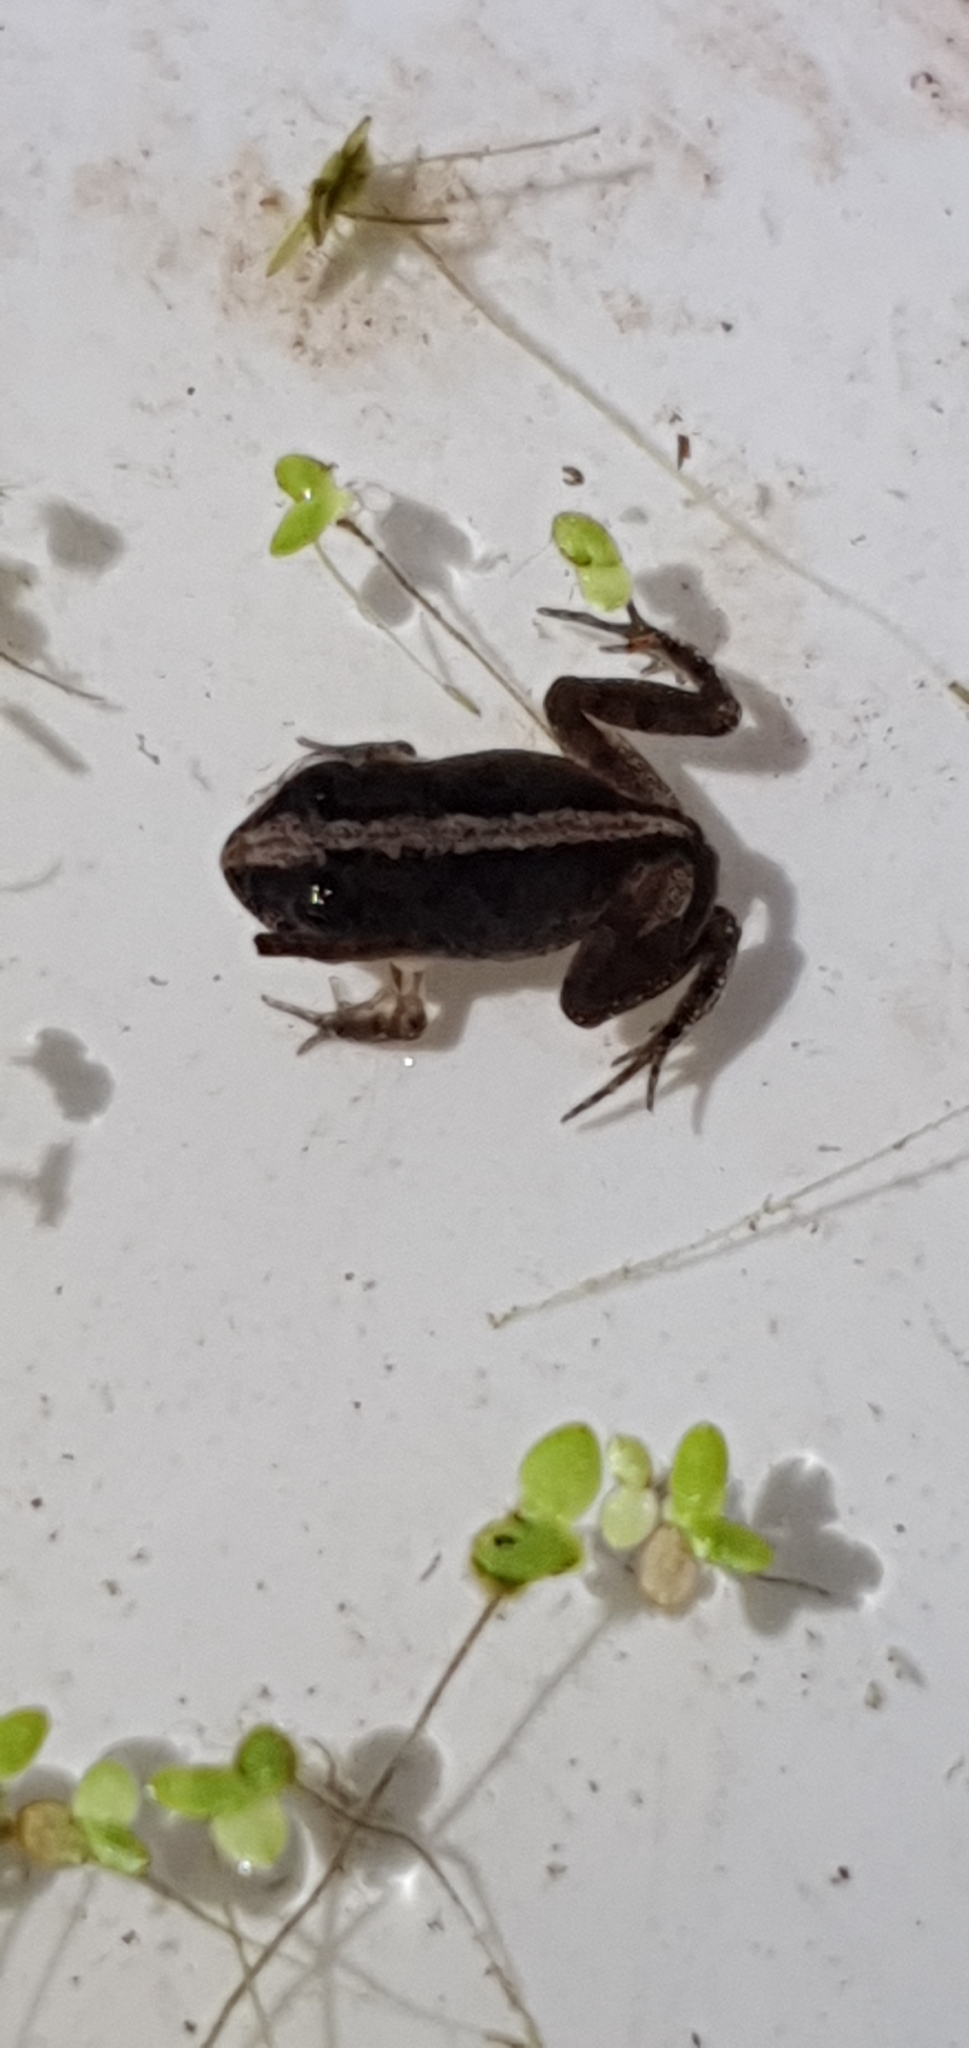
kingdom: Animalia
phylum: Chordata
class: Amphibia
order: Anura
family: Limnodynastidae
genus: Platyplectrum
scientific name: Platyplectrum ornatum
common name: Ornate burrowing frog
